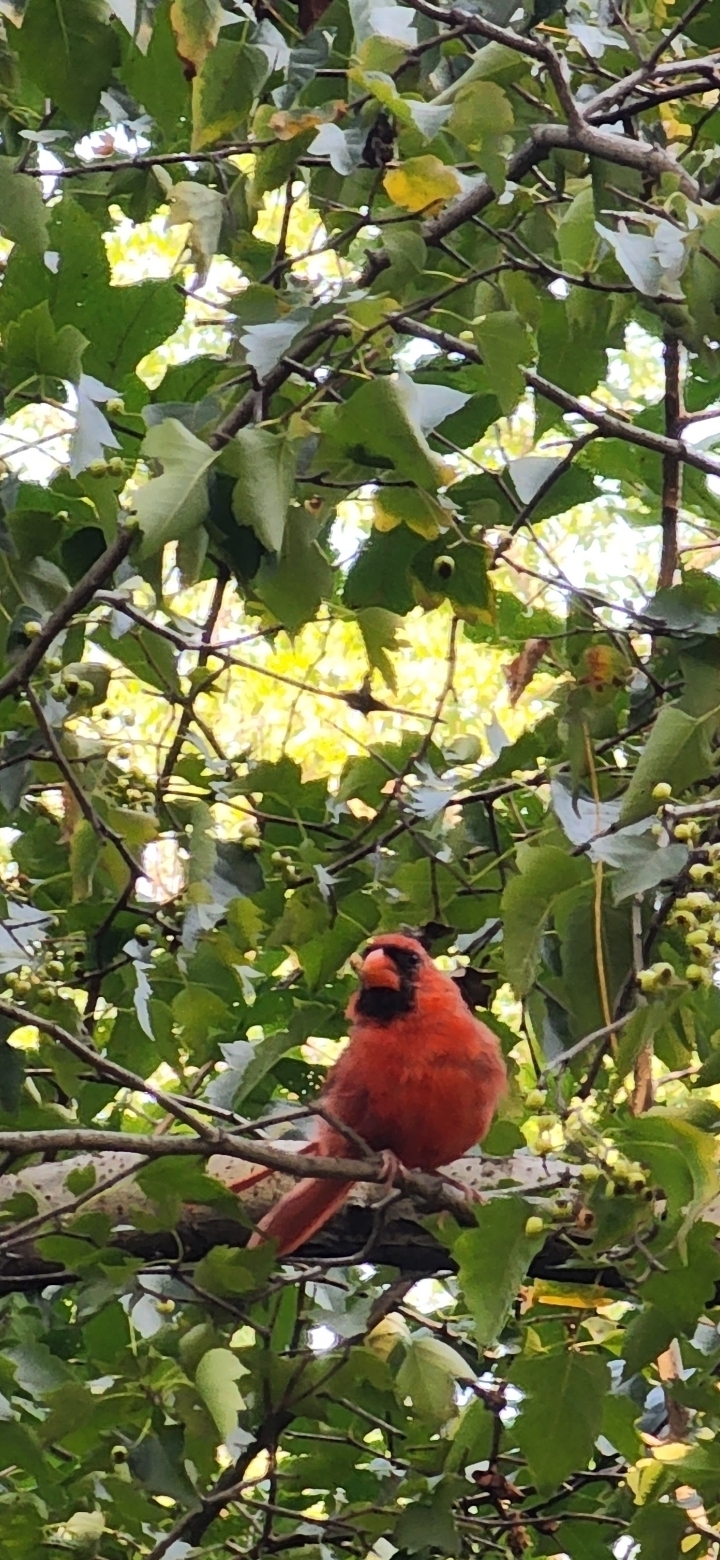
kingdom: Animalia
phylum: Chordata
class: Aves
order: Passeriformes
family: Cardinalidae
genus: Cardinalis
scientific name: Cardinalis cardinalis
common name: Northern cardinal
